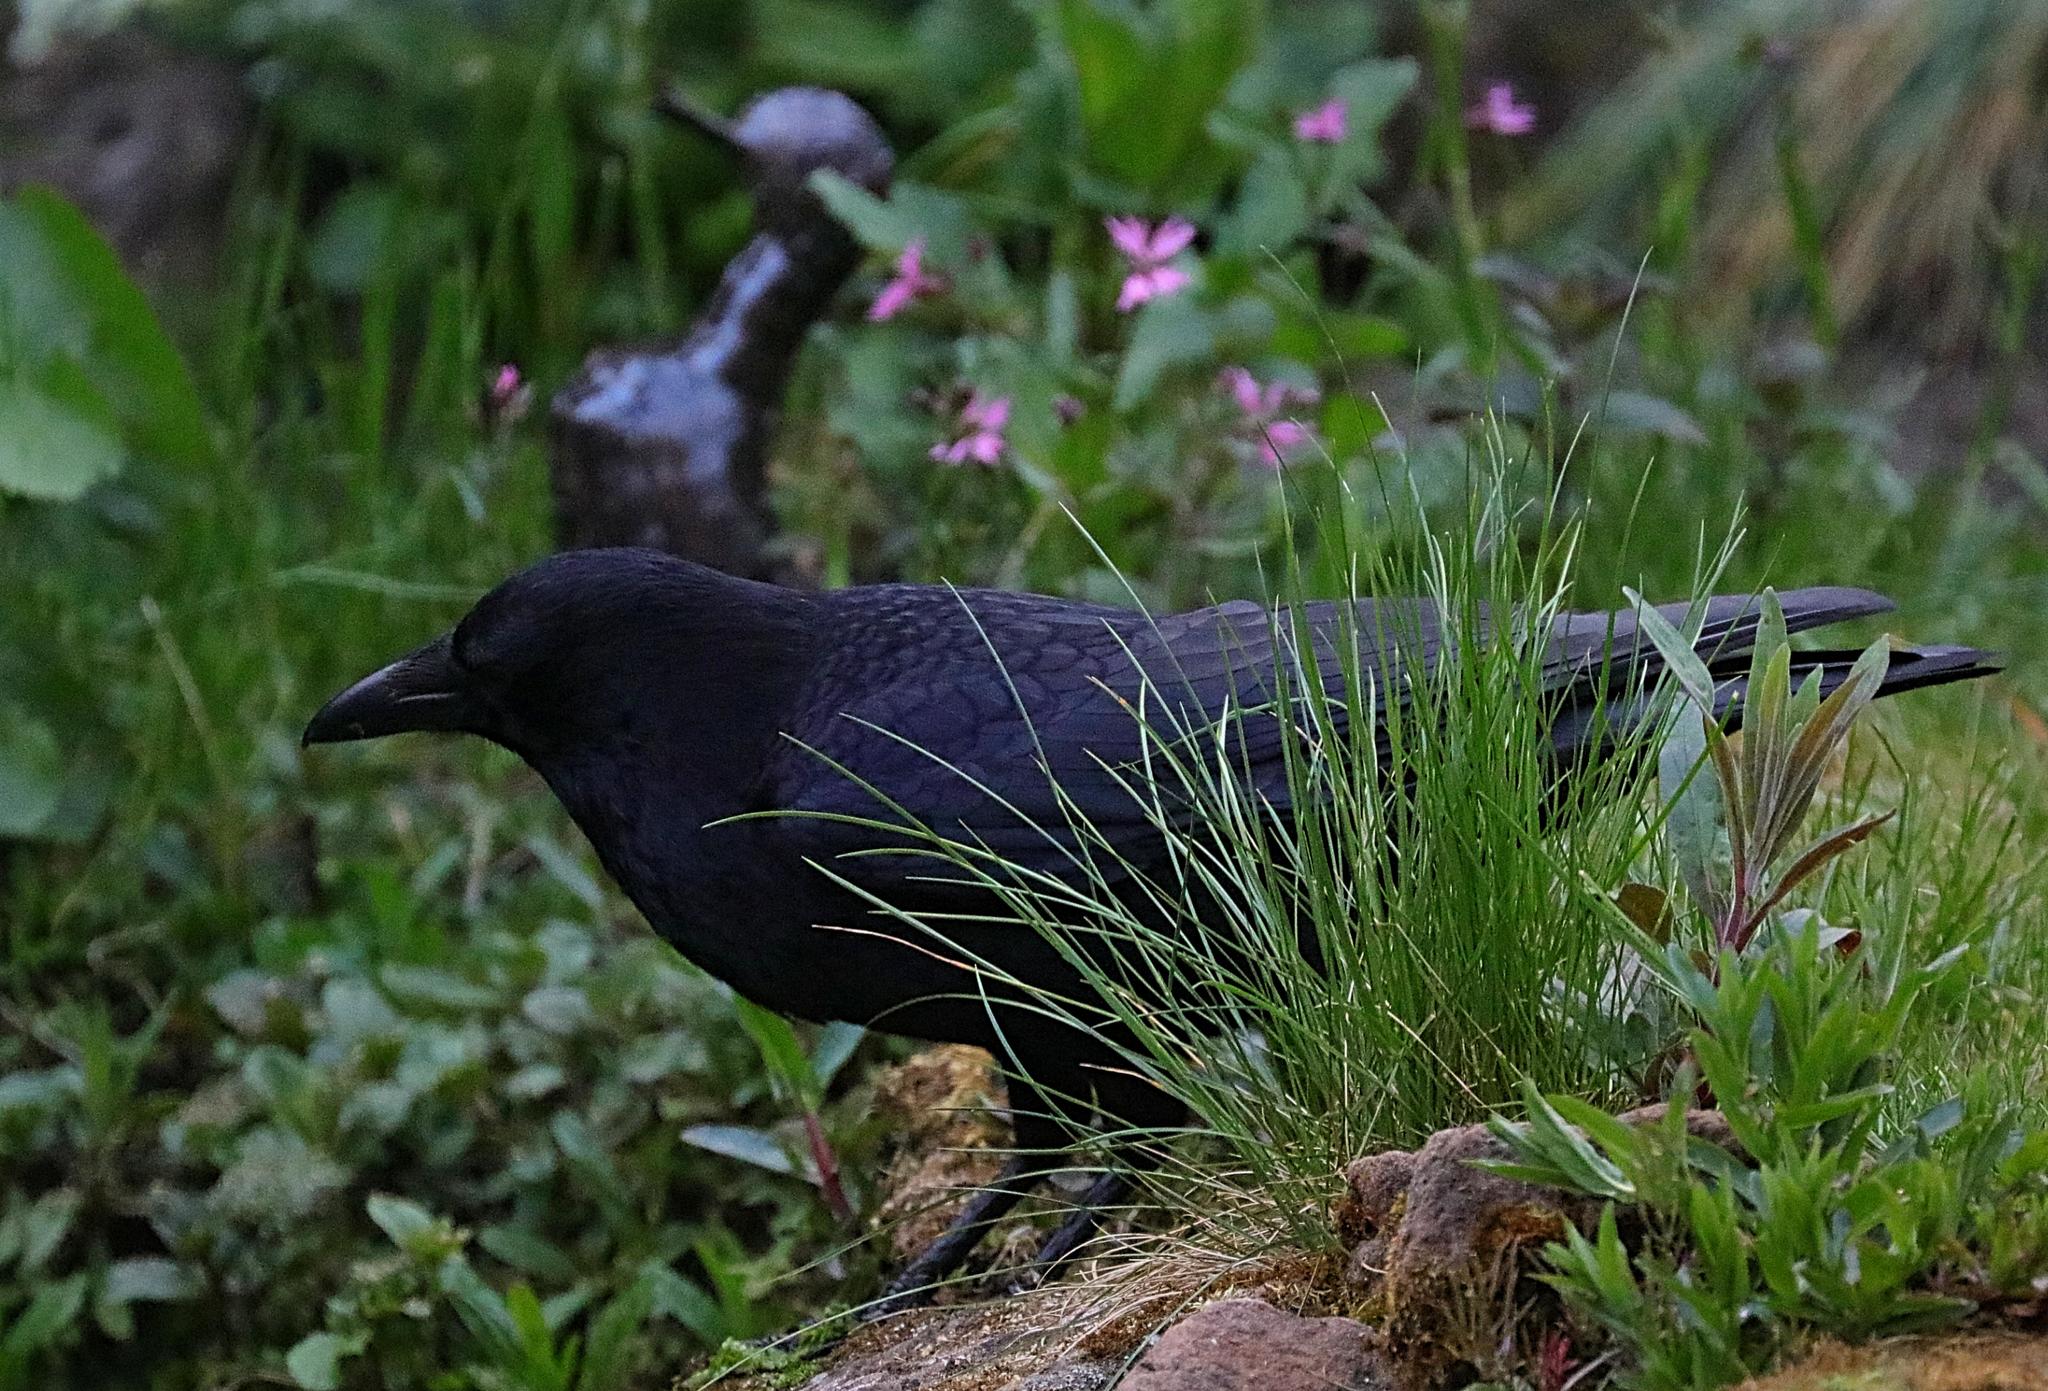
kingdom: Animalia
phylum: Chordata
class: Aves
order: Passeriformes
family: Corvidae
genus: Corvus
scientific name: Corvus corone
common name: Carrion crow
